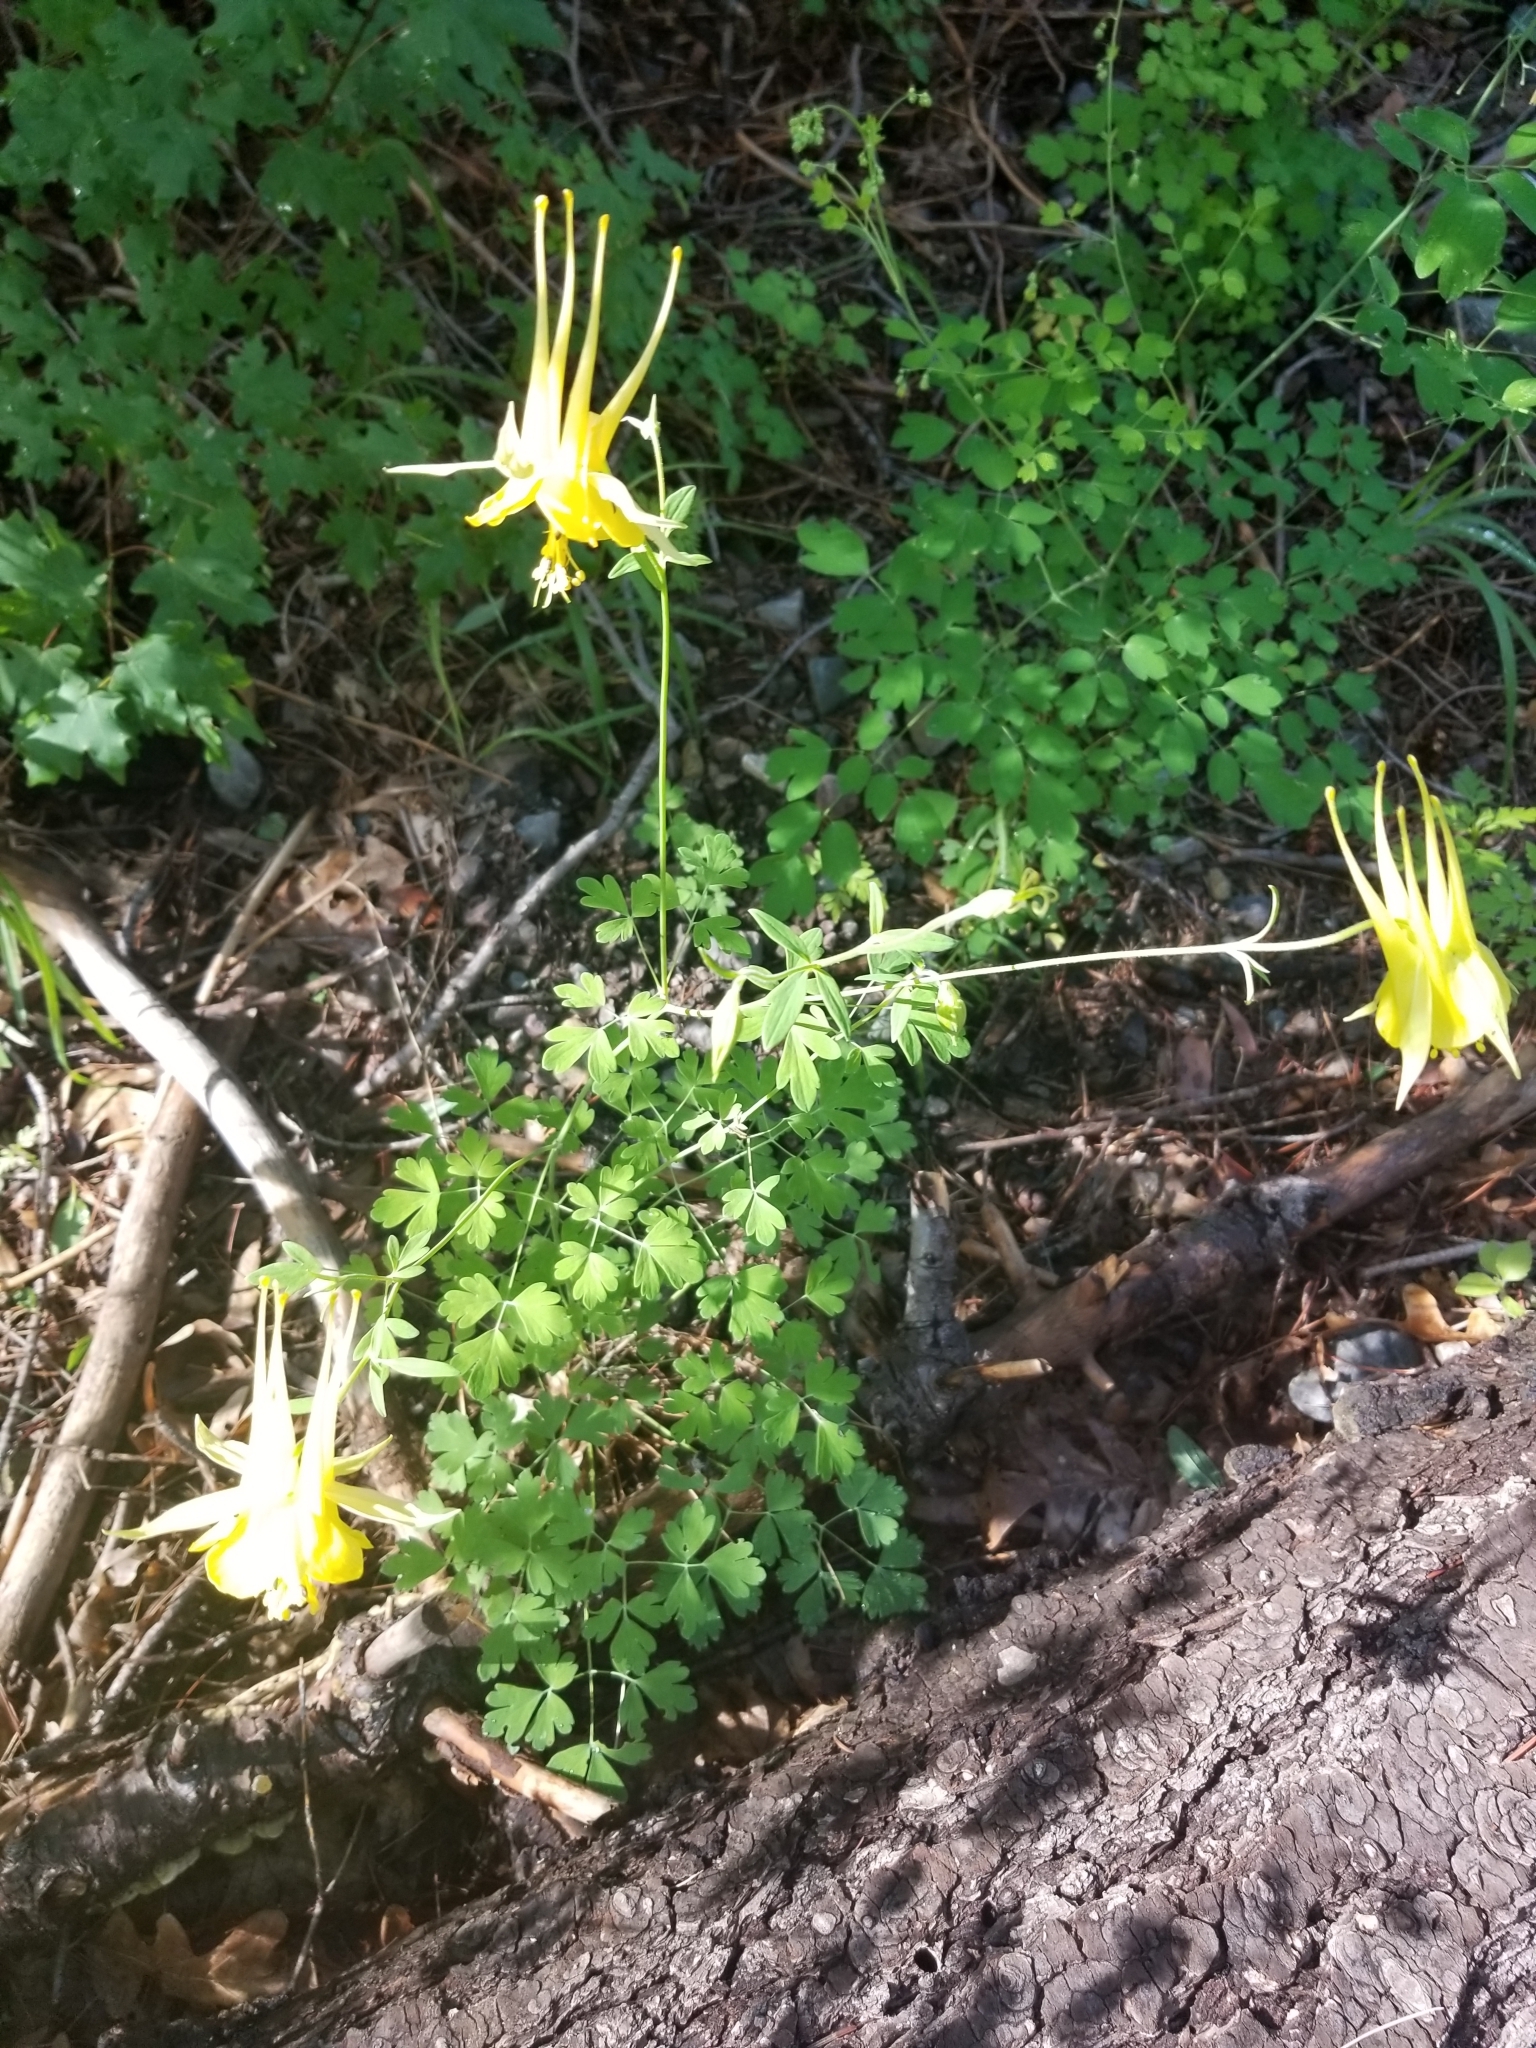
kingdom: Plantae
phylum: Tracheophyta
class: Magnoliopsida
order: Ranunculales
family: Ranunculaceae
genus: Aquilegia
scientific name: Aquilegia chrysantha
